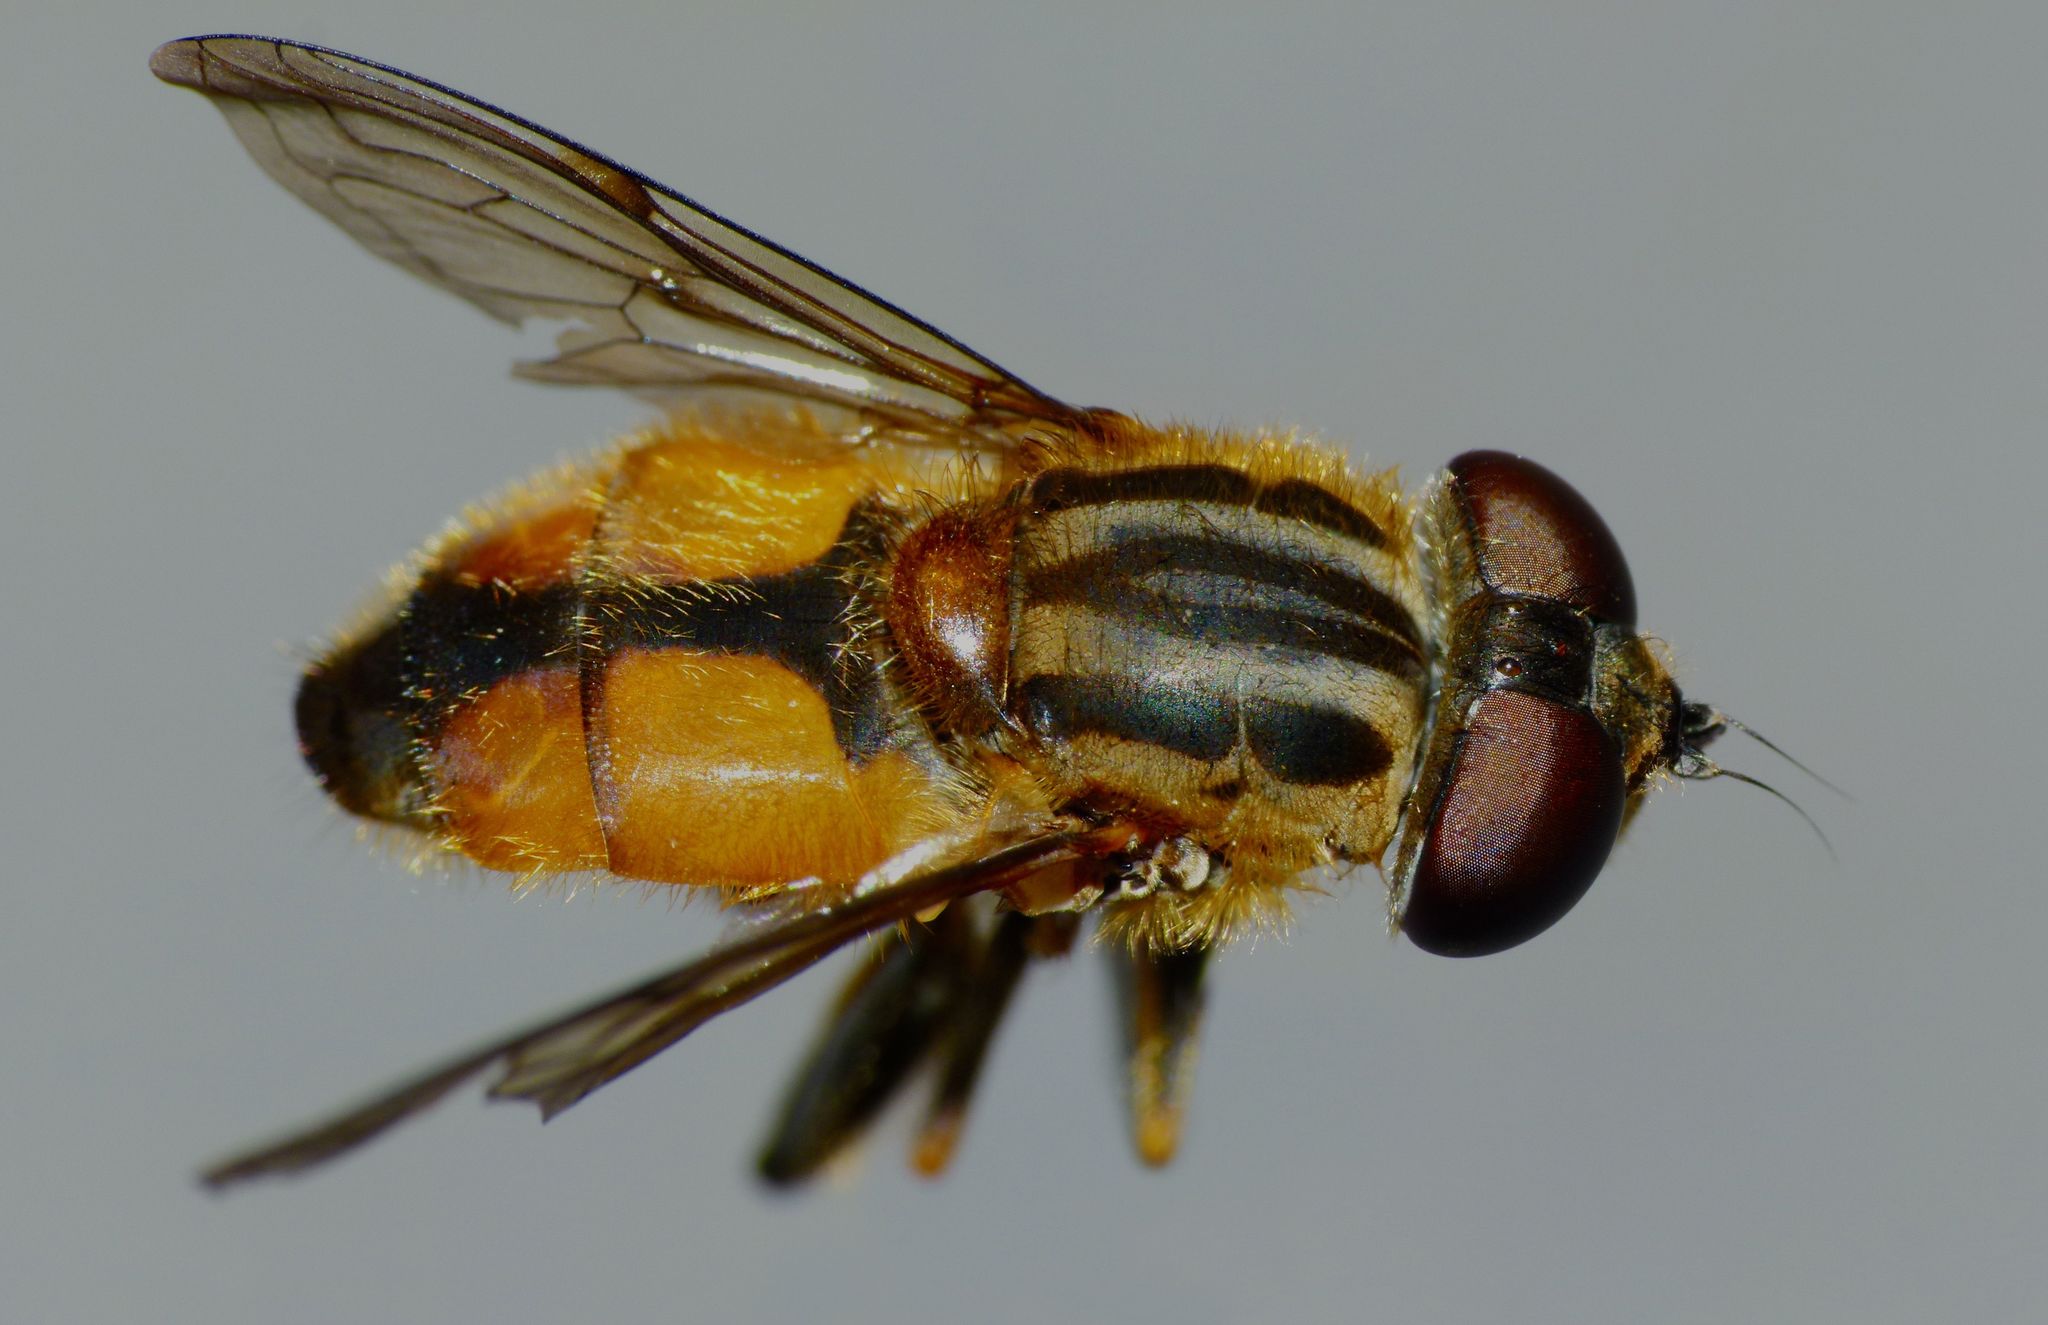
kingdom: Animalia
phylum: Arthropoda
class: Insecta
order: Diptera
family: Syrphidae
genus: Helophilus
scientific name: Helophilus antipodus
